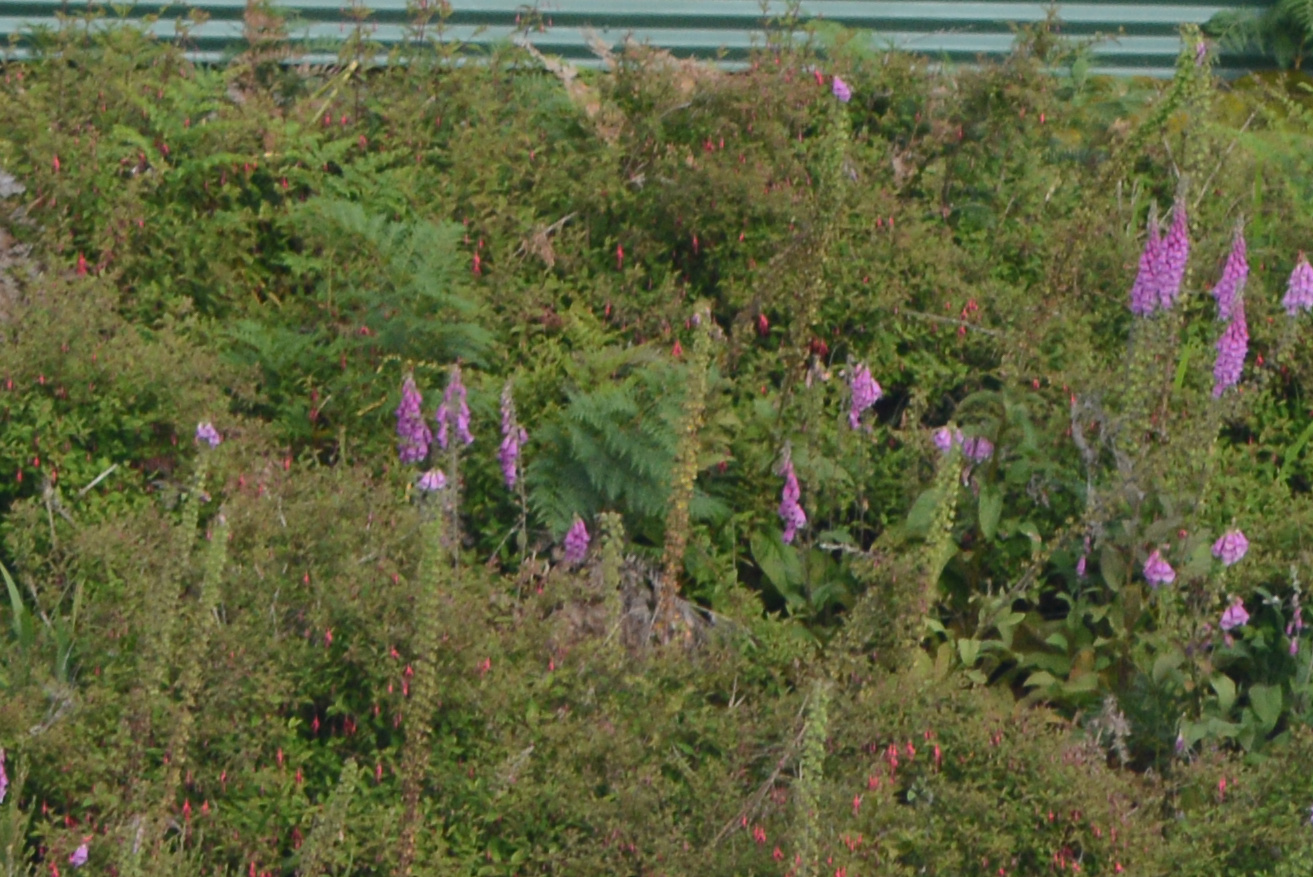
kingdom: Plantae
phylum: Tracheophyta
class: Magnoliopsida
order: Lamiales
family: Plantaginaceae
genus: Digitalis
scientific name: Digitalis purpurea
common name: Foxglove
